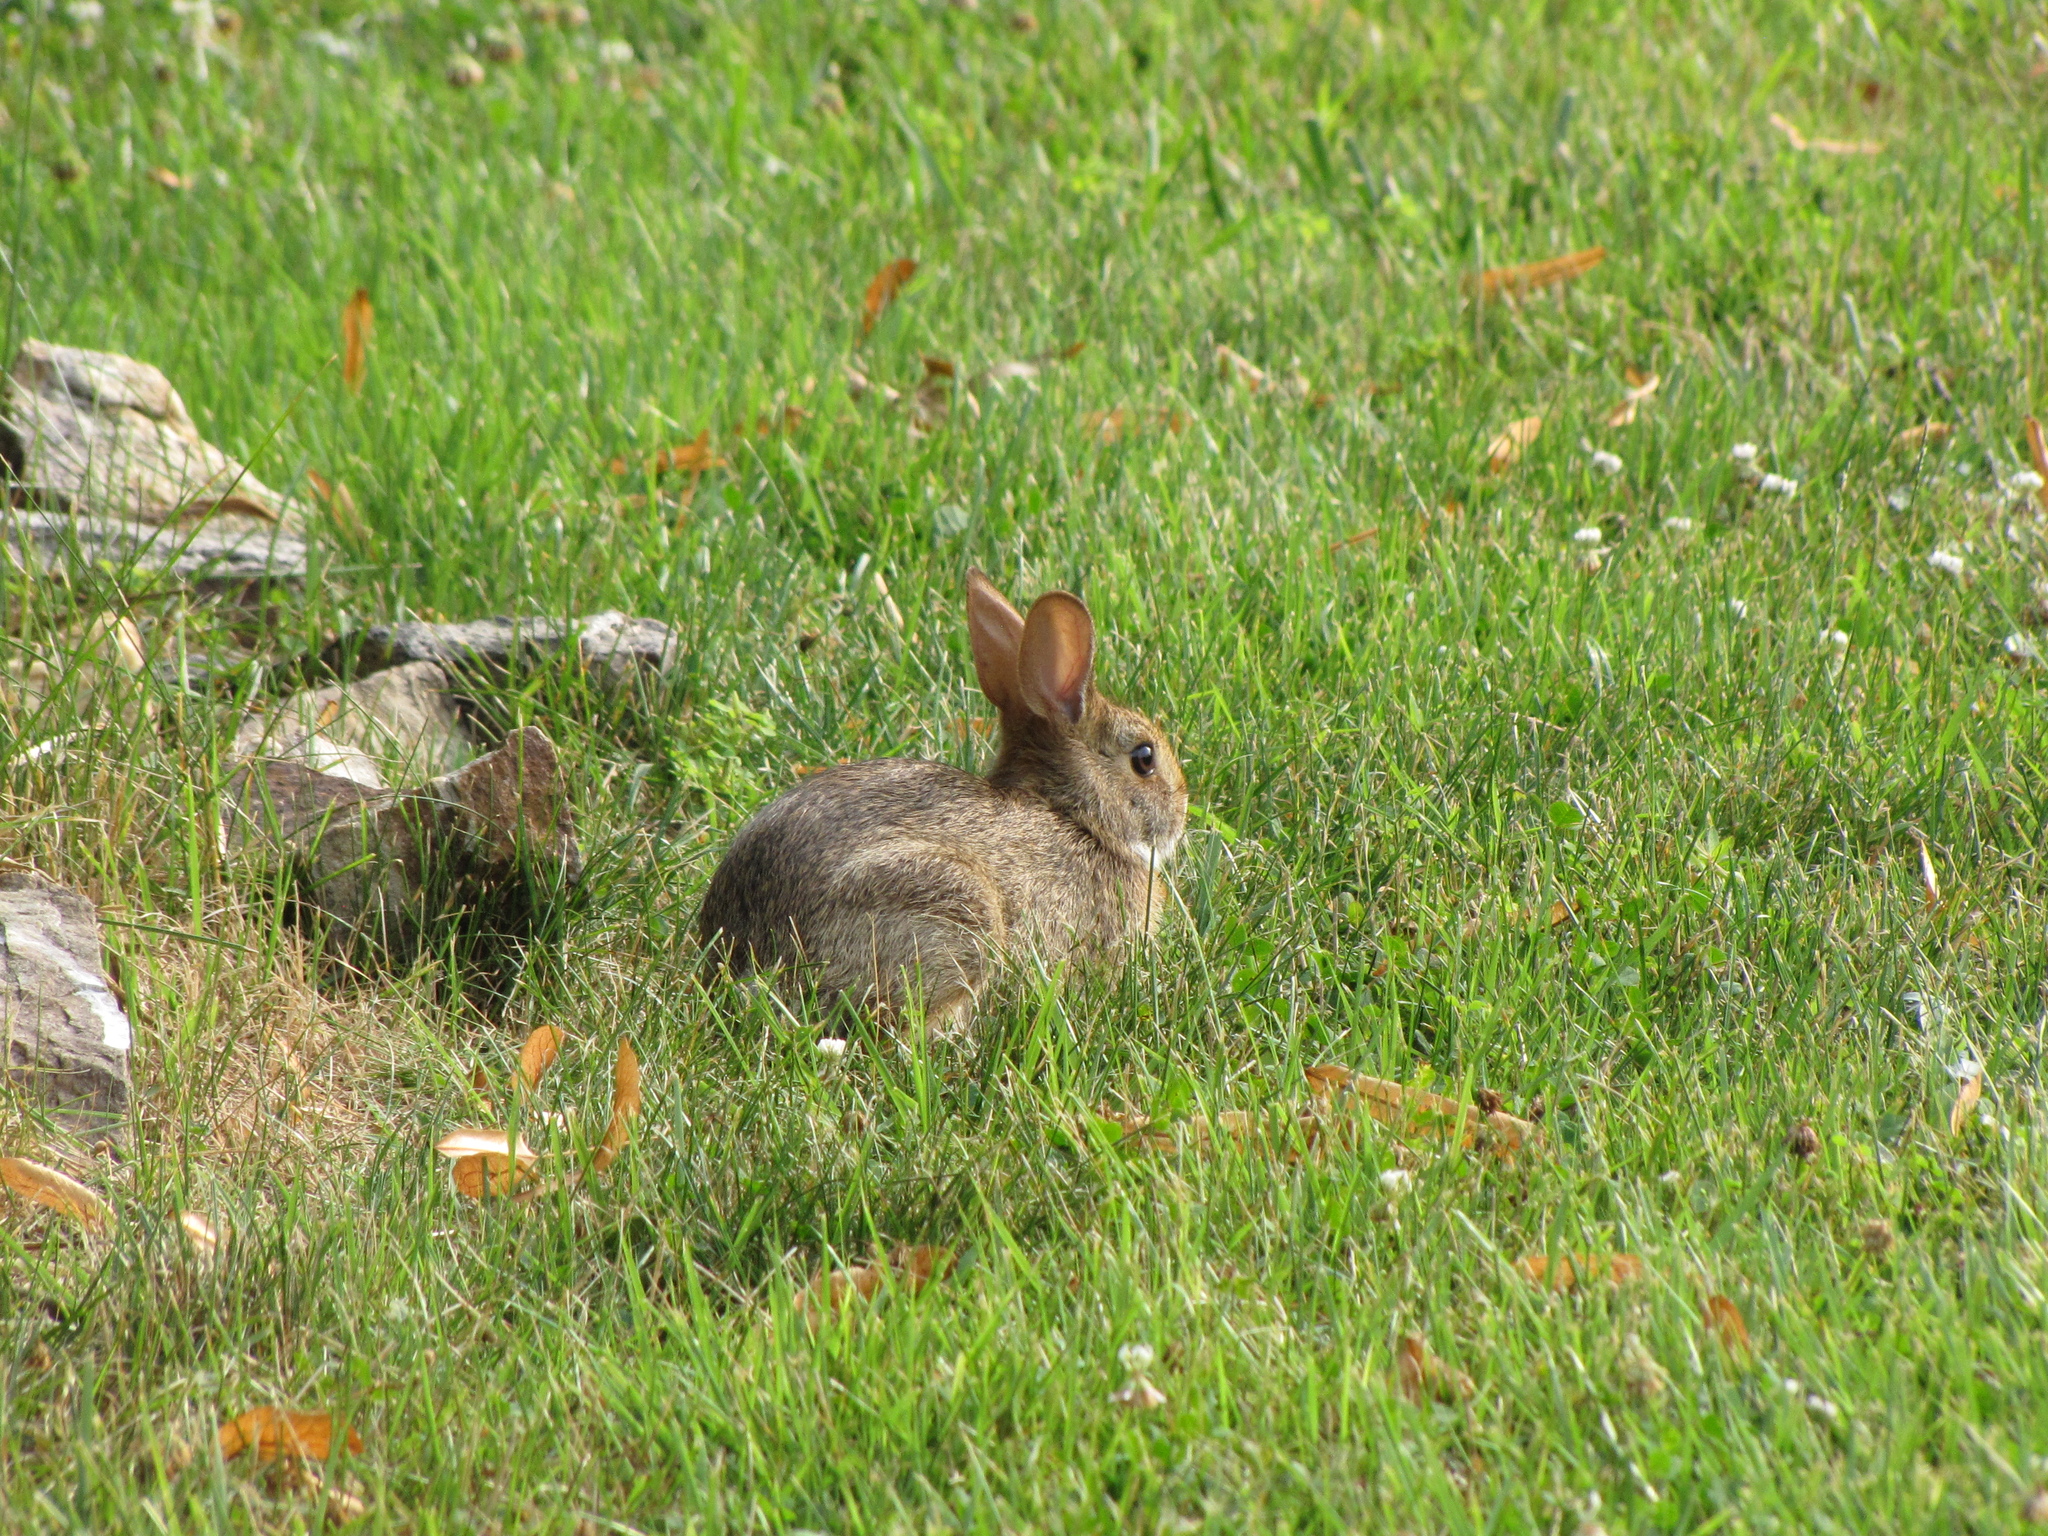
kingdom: Animalia
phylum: Chordata
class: Mammalia
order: Lagomorpha
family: Leporidae
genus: Sylvilagus
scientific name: Sylvilagus floridanus
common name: Eastern cottontail
